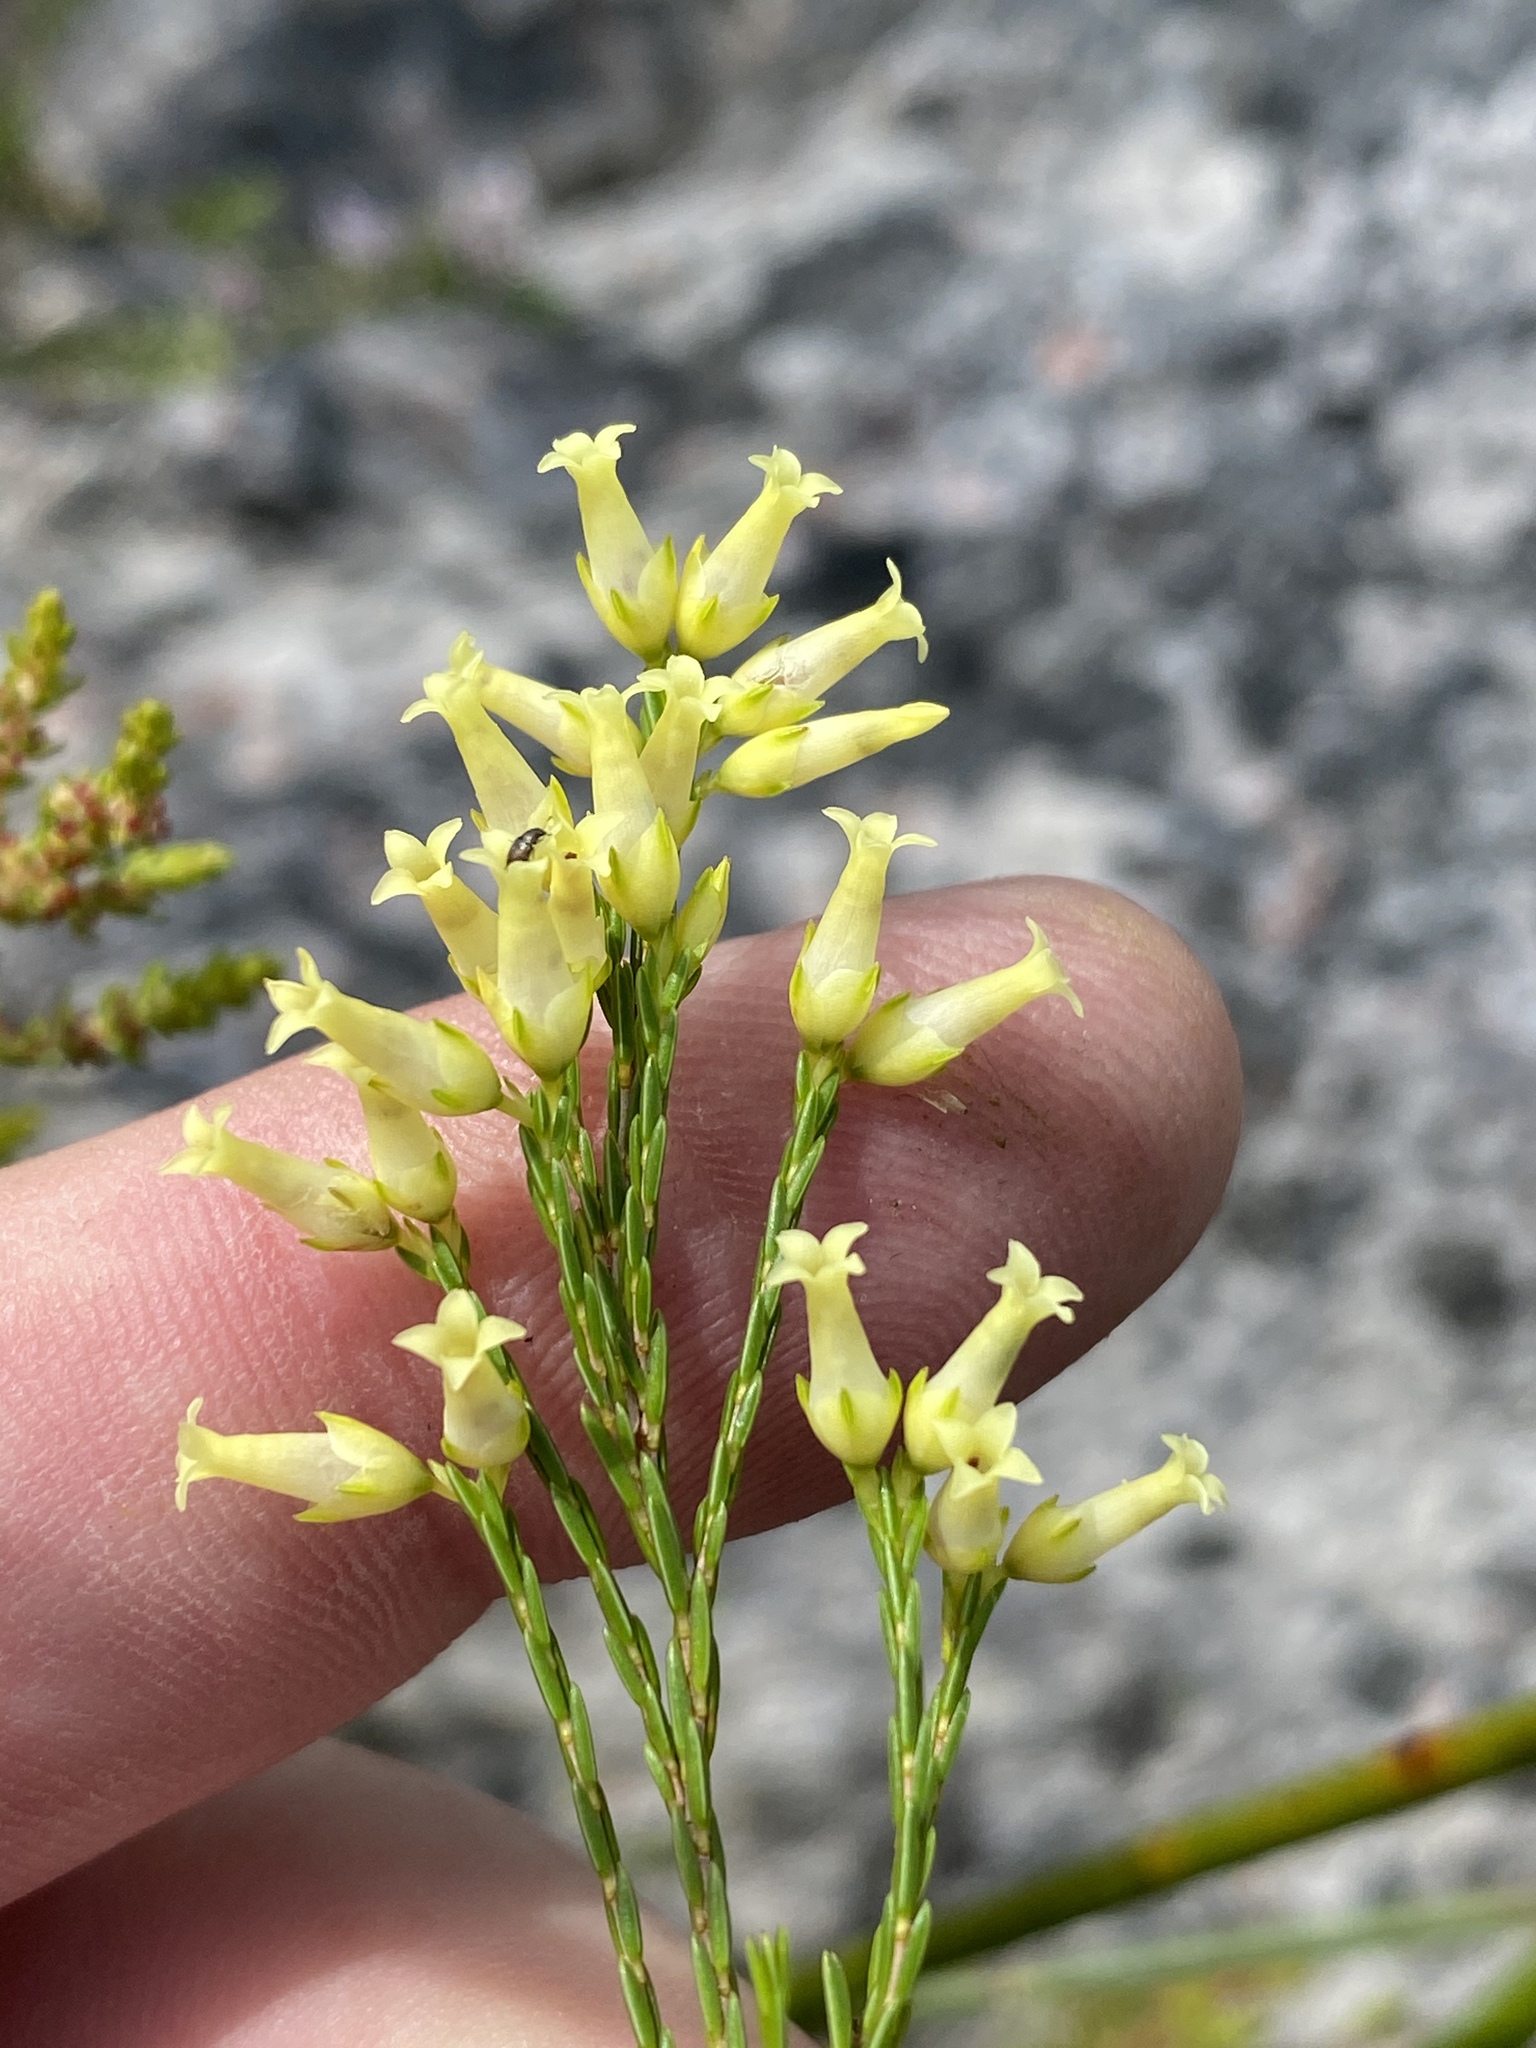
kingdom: Plantae
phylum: Tracheophyta
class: Magnoliopsida
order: Ericales
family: Ericaceae
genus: Erica
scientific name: Erica lutea
